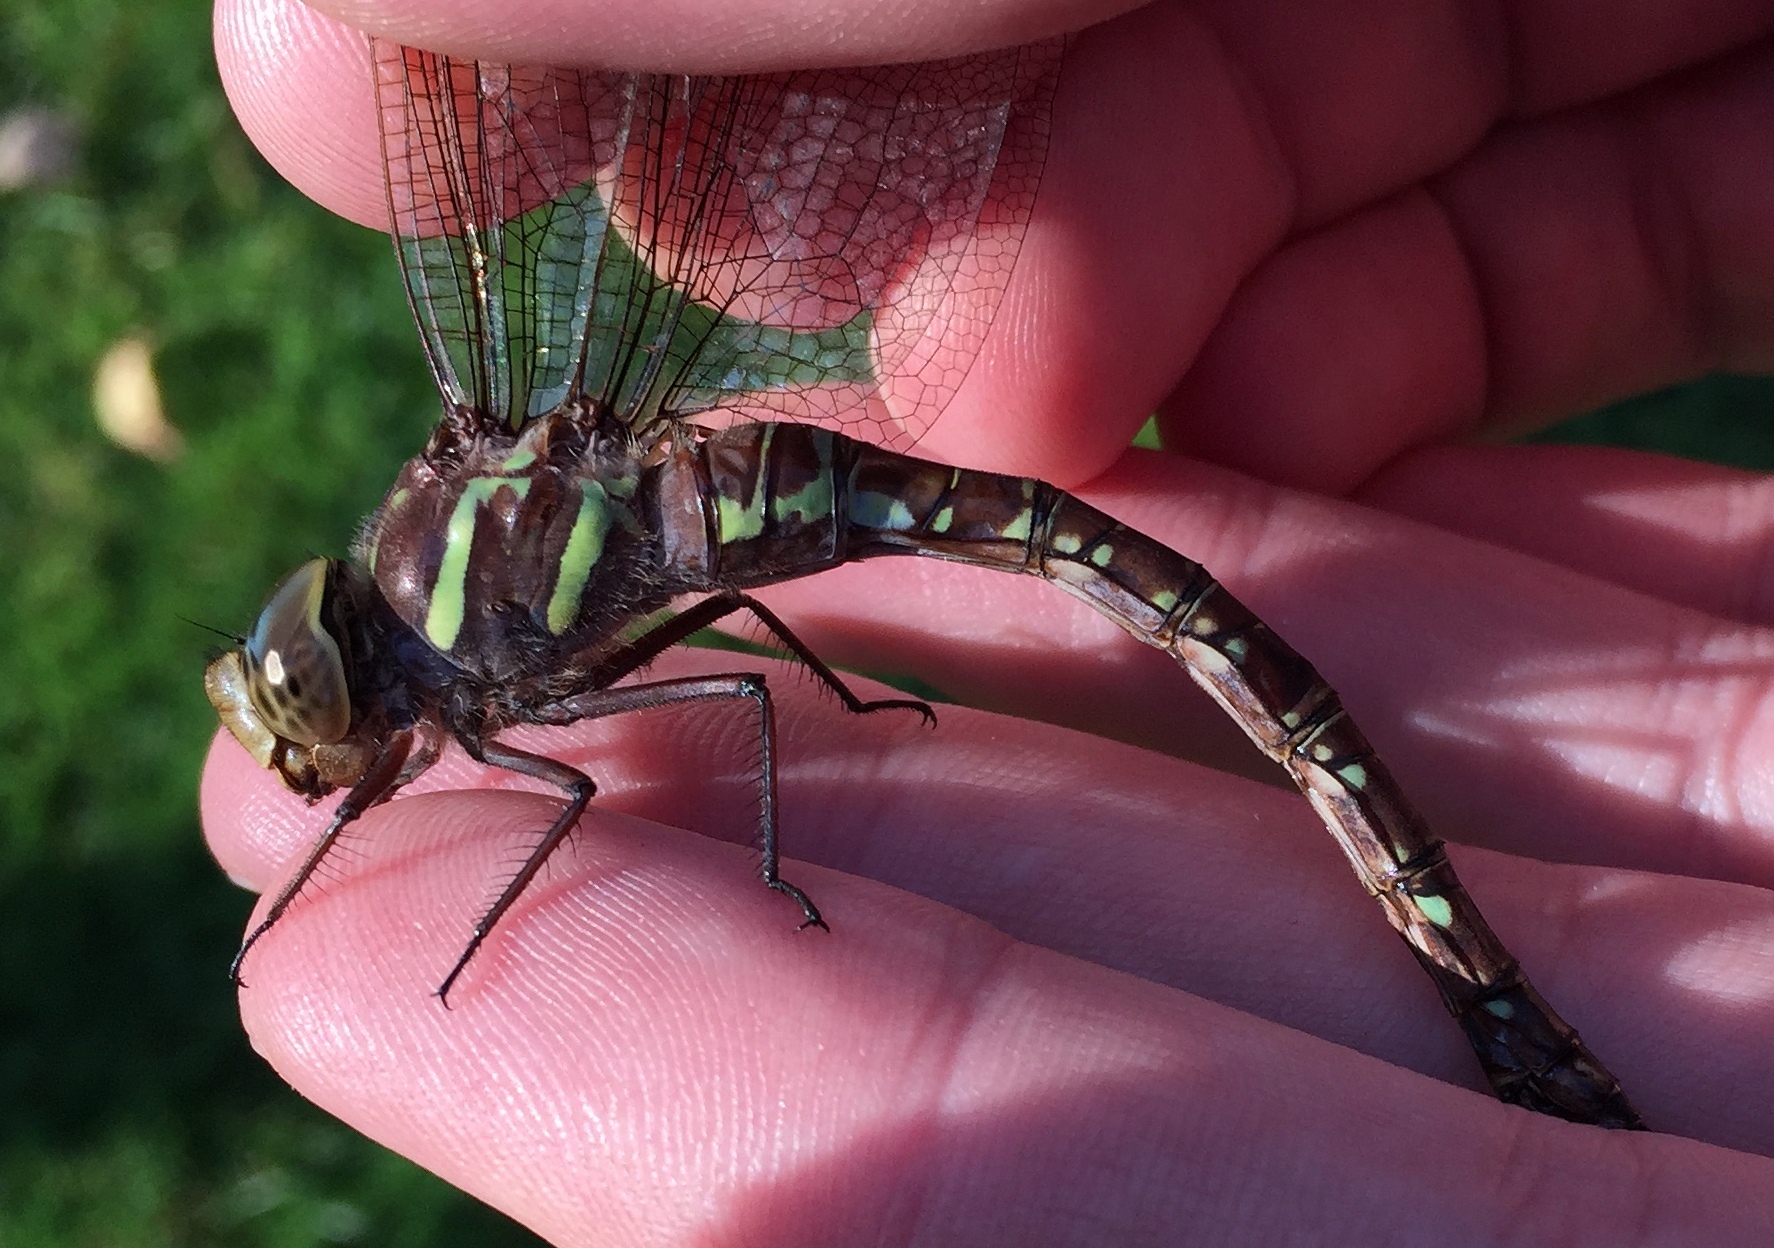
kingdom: Animalia
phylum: Arthropoda
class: Insecta
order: Odonata
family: Aeshnidae
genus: Aeshna
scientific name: Aeshna umbrosa
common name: Shadow darner
